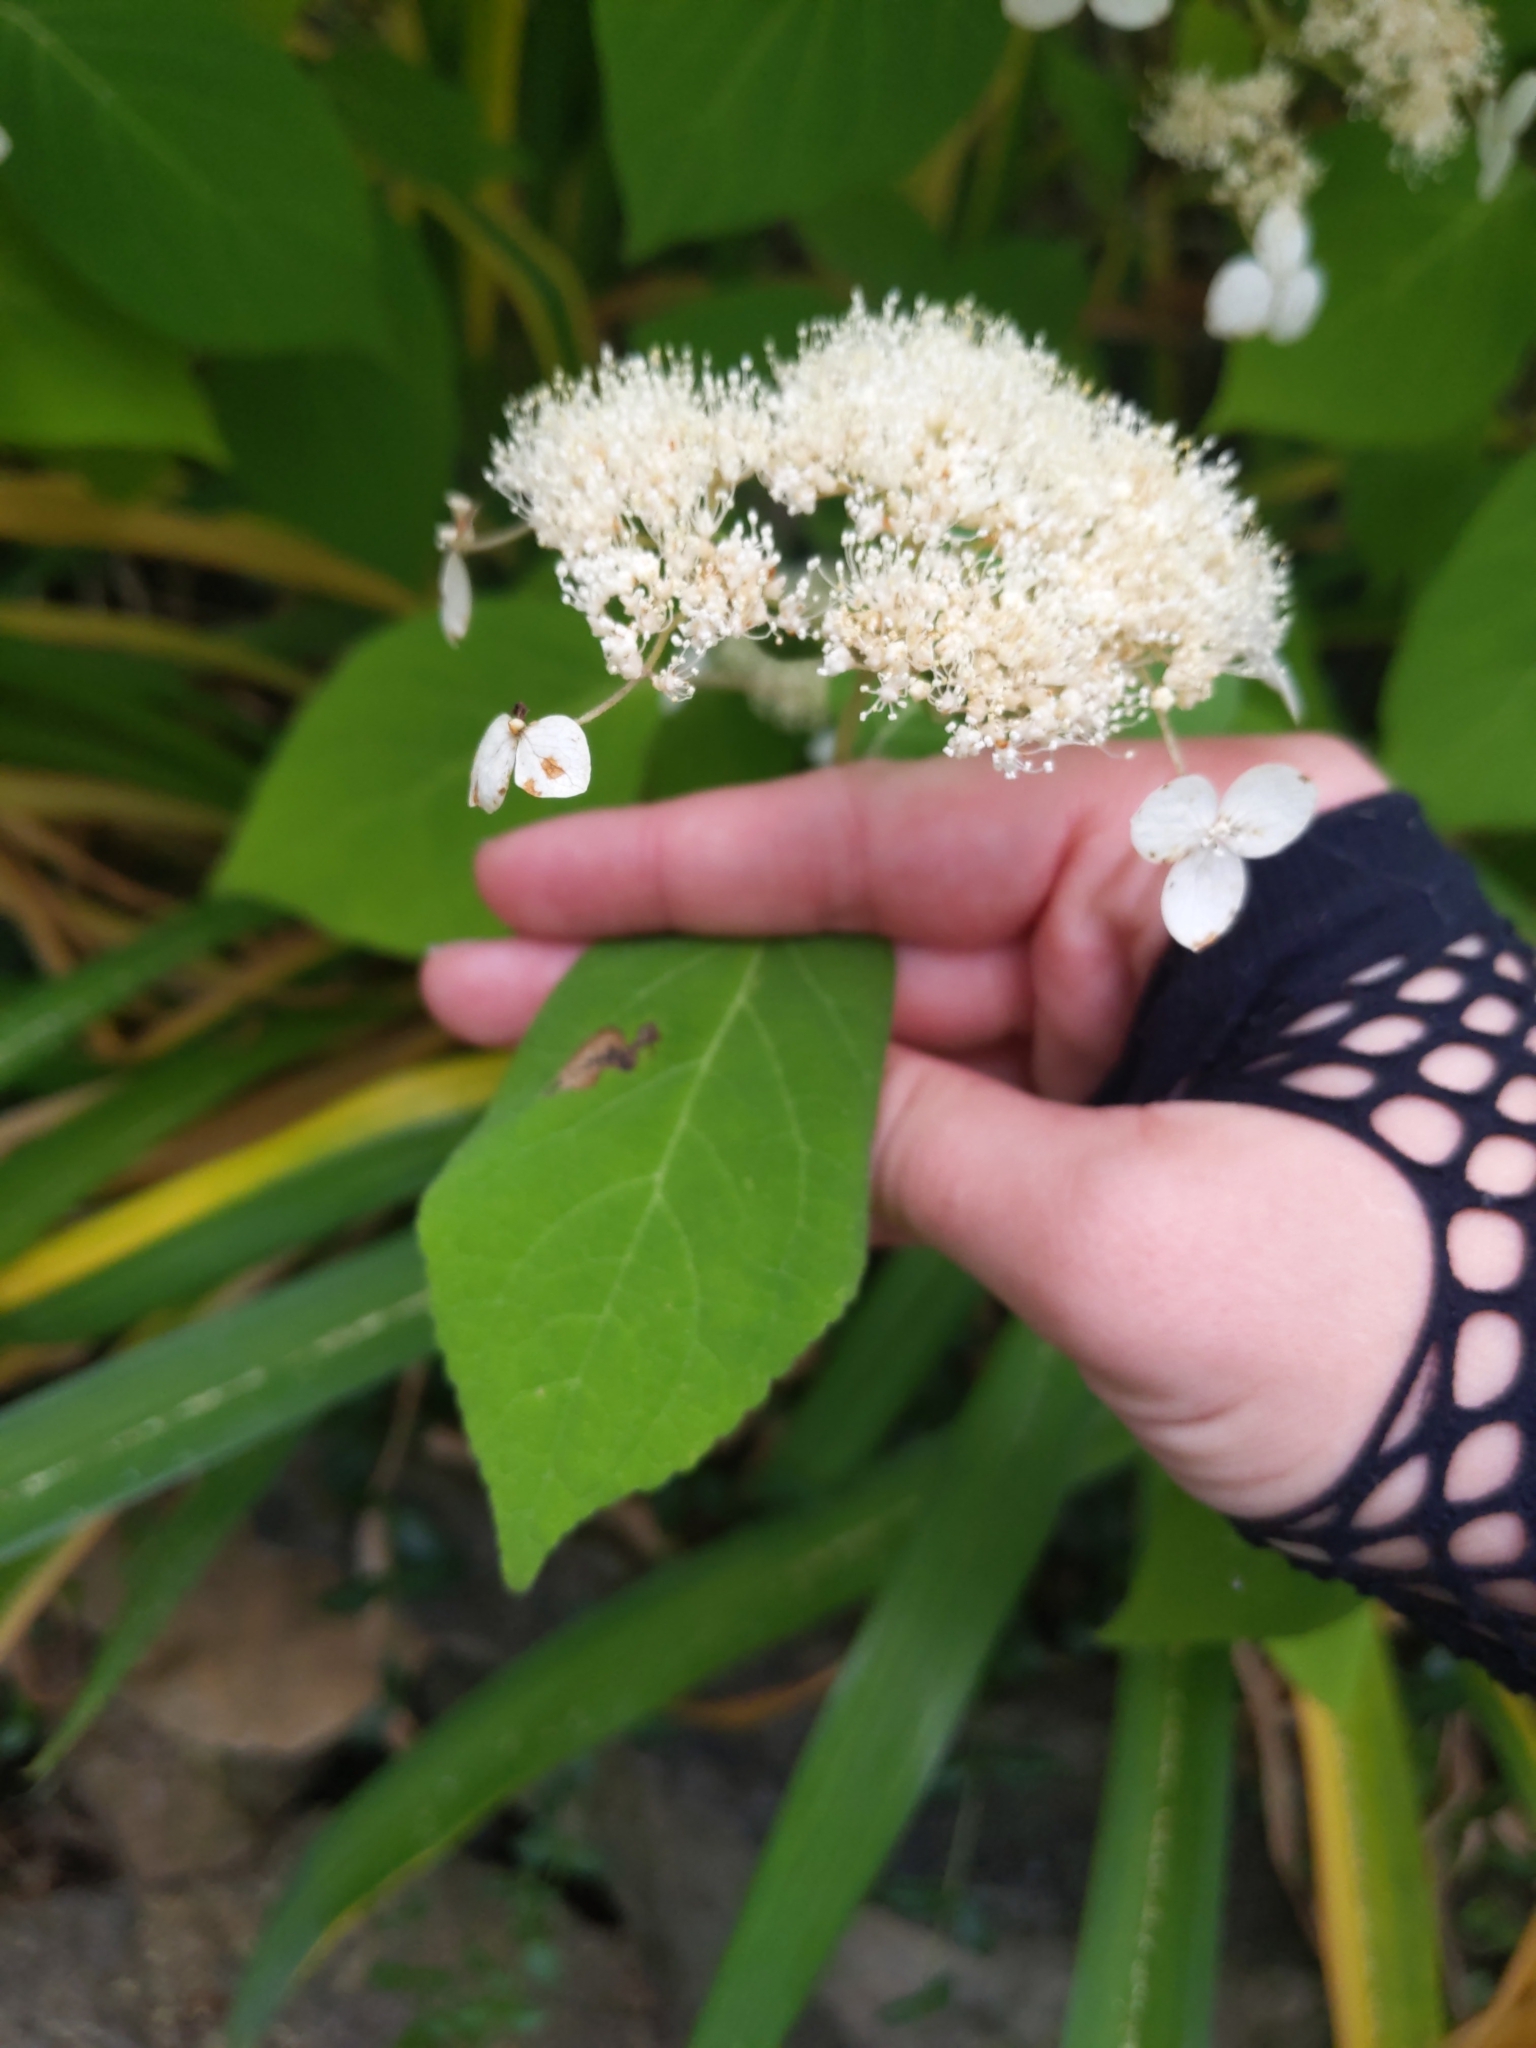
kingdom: Animalia
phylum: Arthropoda
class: Insecta
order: Lepidoptera
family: Heliozelidae
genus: Aspilanta
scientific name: Aspilanta hydrangaeella
